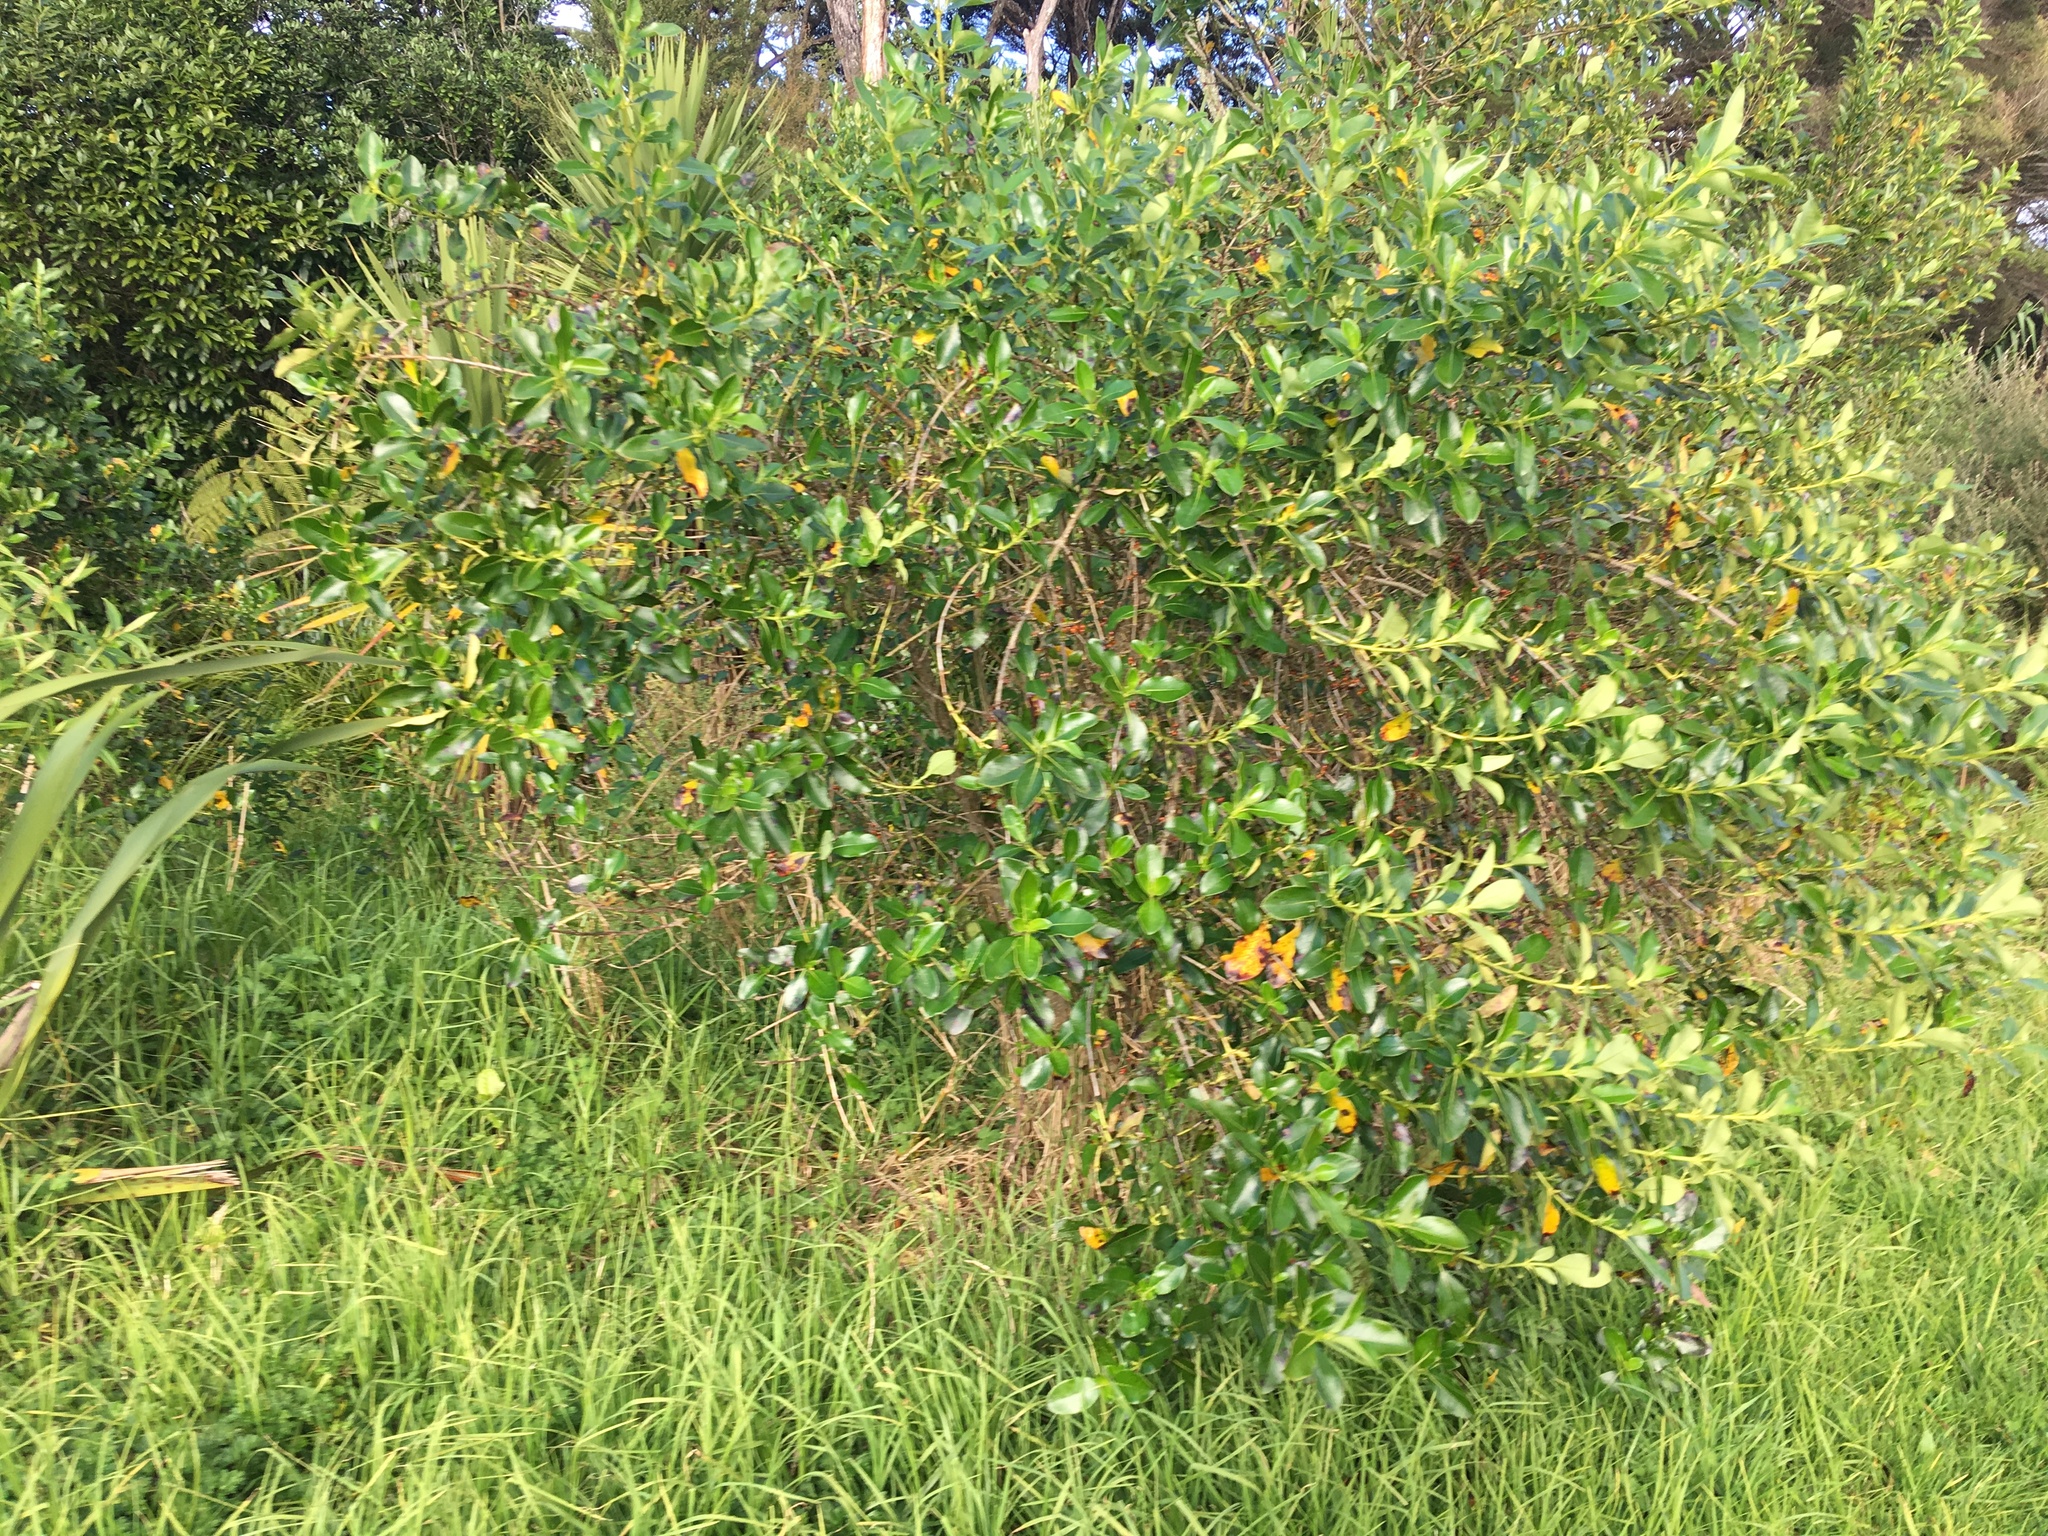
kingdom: Plantae
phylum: Tracheophyta
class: Magnoliopsida
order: Gentianales
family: Rubiaceae
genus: Coprosma
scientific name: Coprosma robusta
